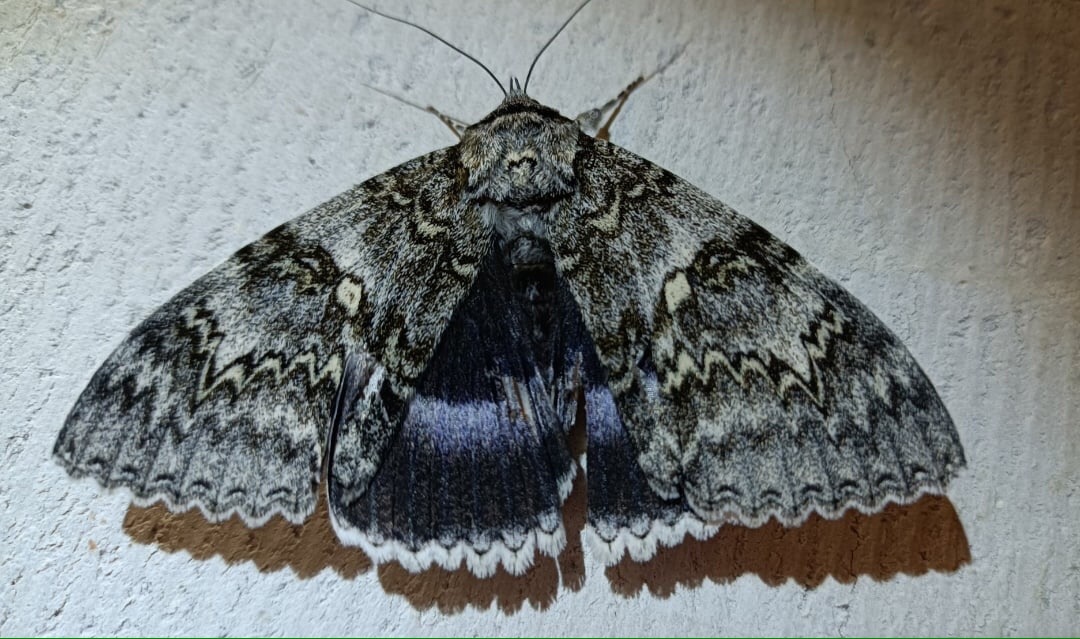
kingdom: Animalia
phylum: Arthropoda
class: Insecta
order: Lepidoptera
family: Erebidae
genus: Catocala
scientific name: Catocala fraxini
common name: Clifden nonpareil
